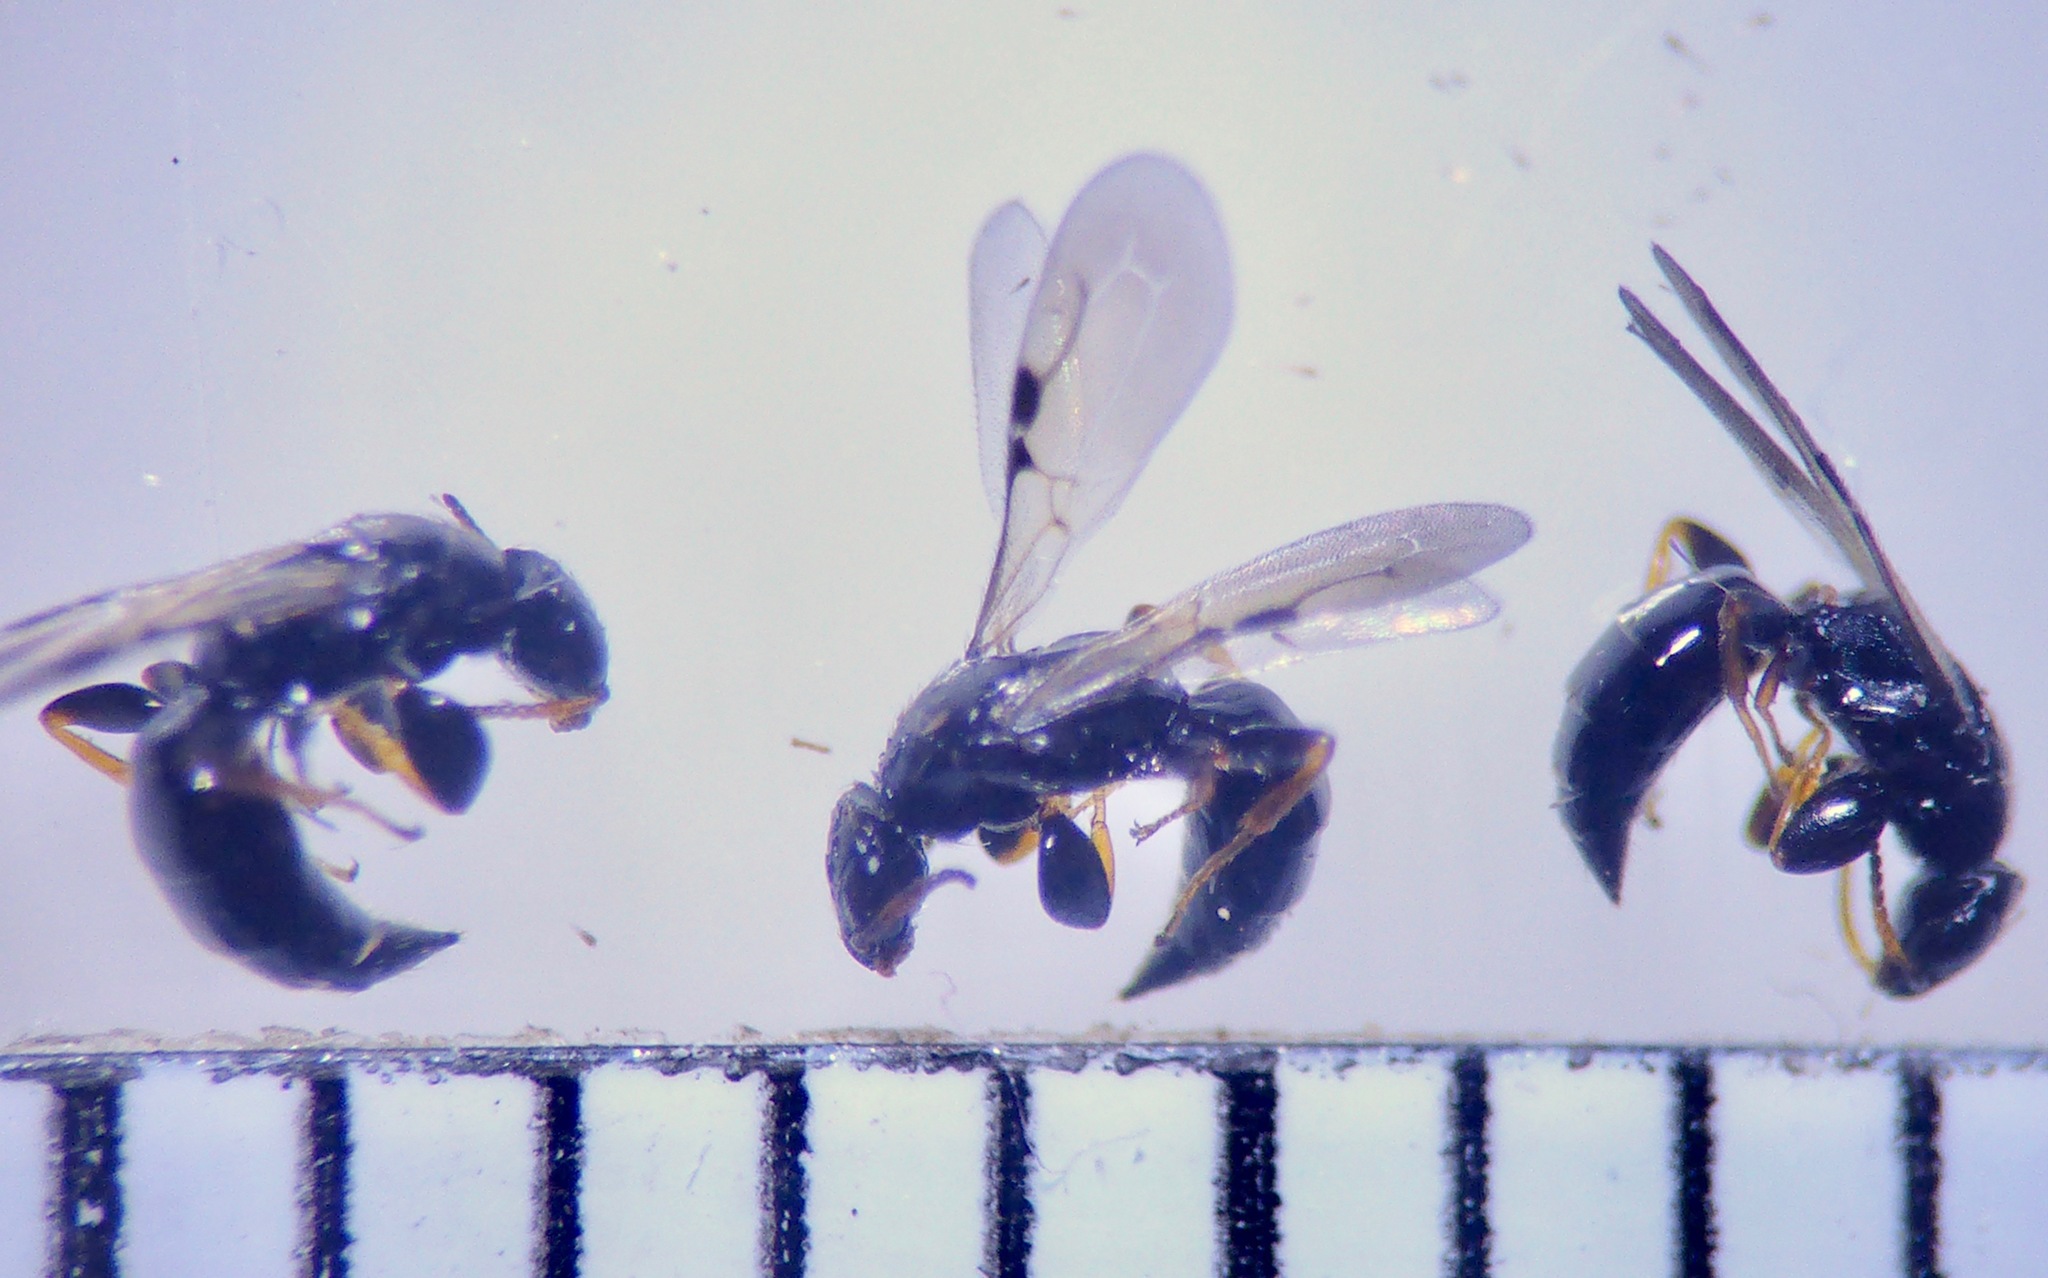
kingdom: Animalia
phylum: Arthropoda
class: Insecta
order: Hymenoptera
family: Bethylidae
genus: Goniozus
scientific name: Goniozus jacintae
